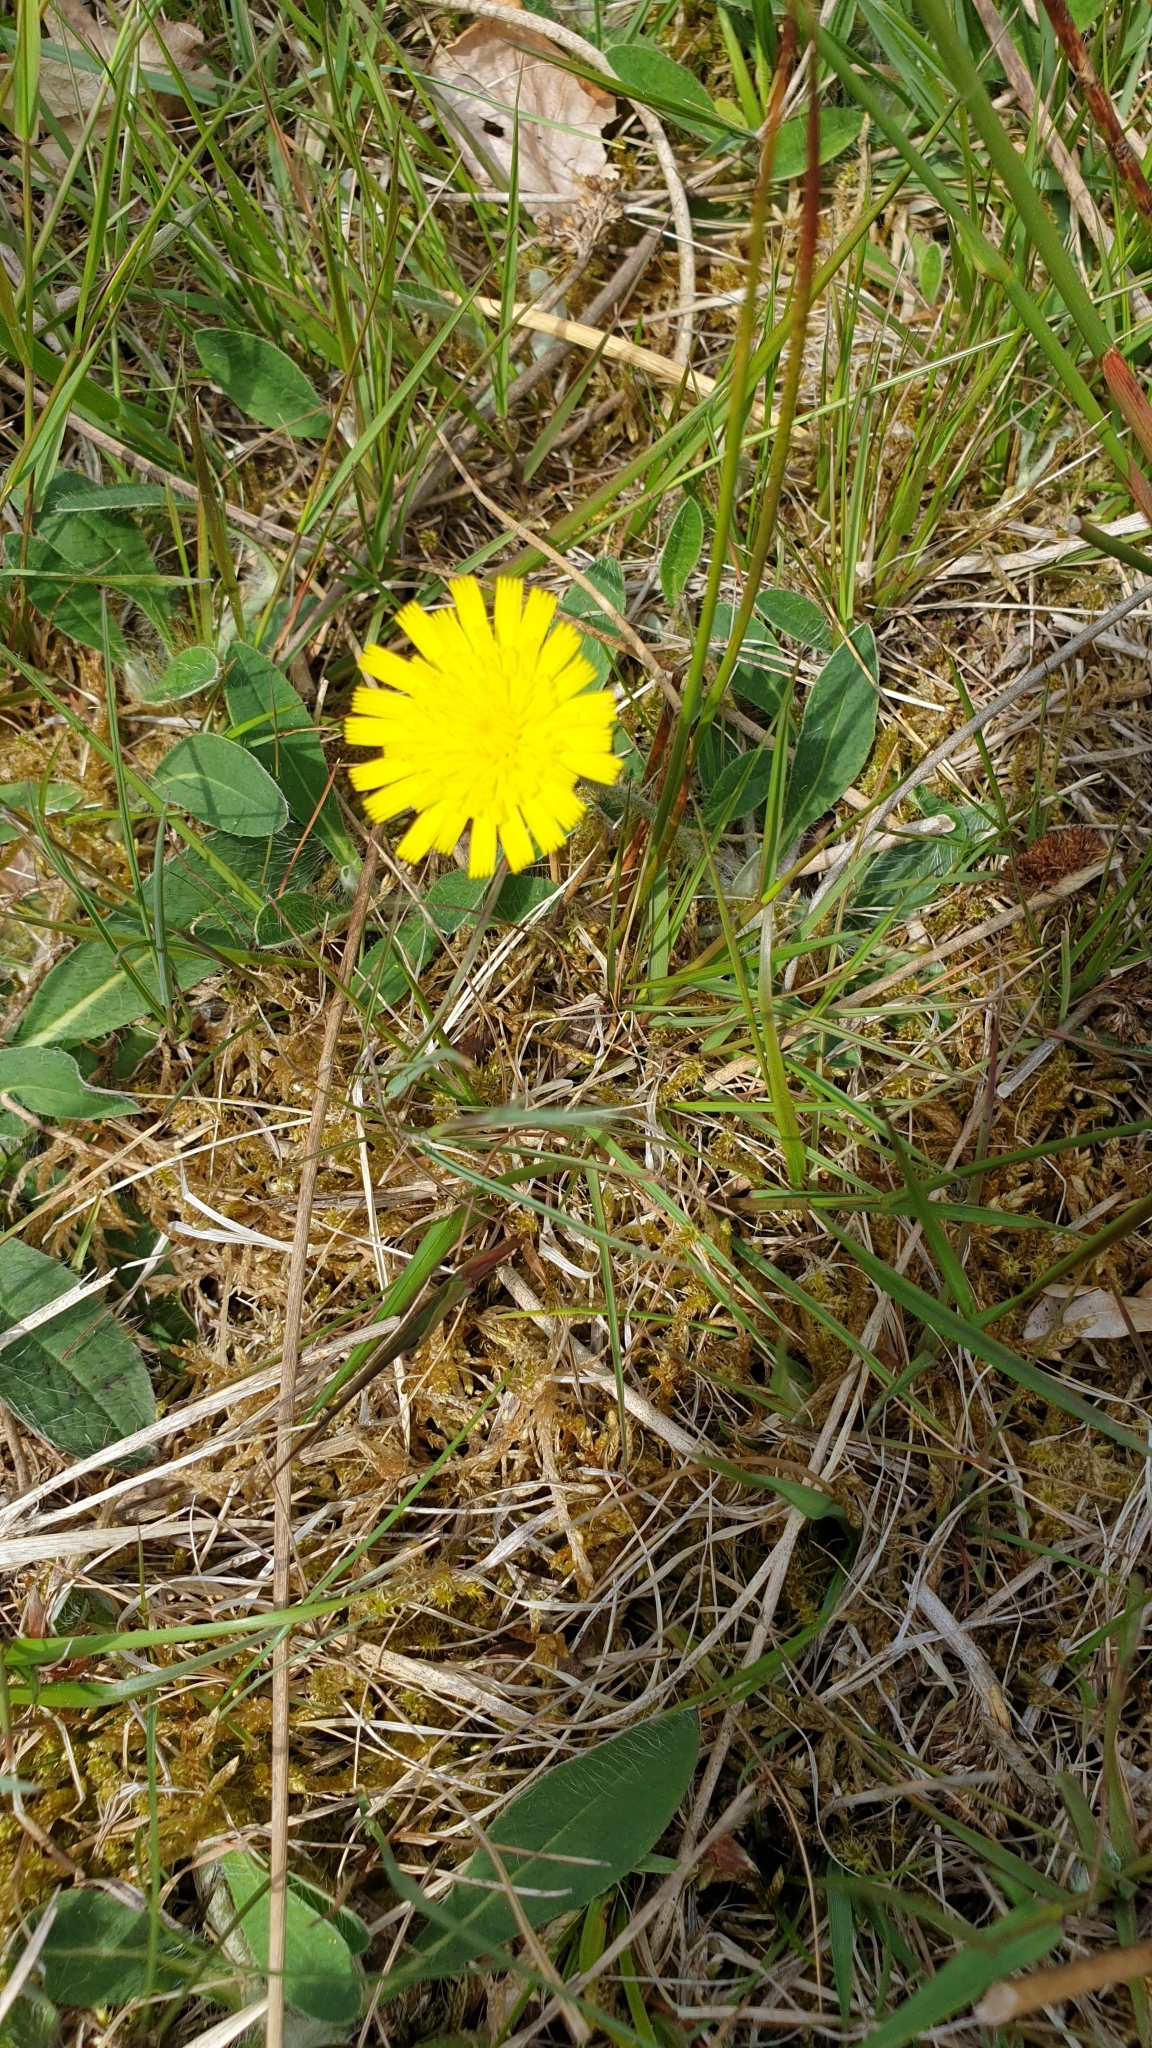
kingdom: Plantae
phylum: Tracheophyta
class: Magnoliopsida
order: Asterales
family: Asteraceae
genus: Pilosella
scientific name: Pilosella officinarum
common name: Mouse-ear hawkweed
